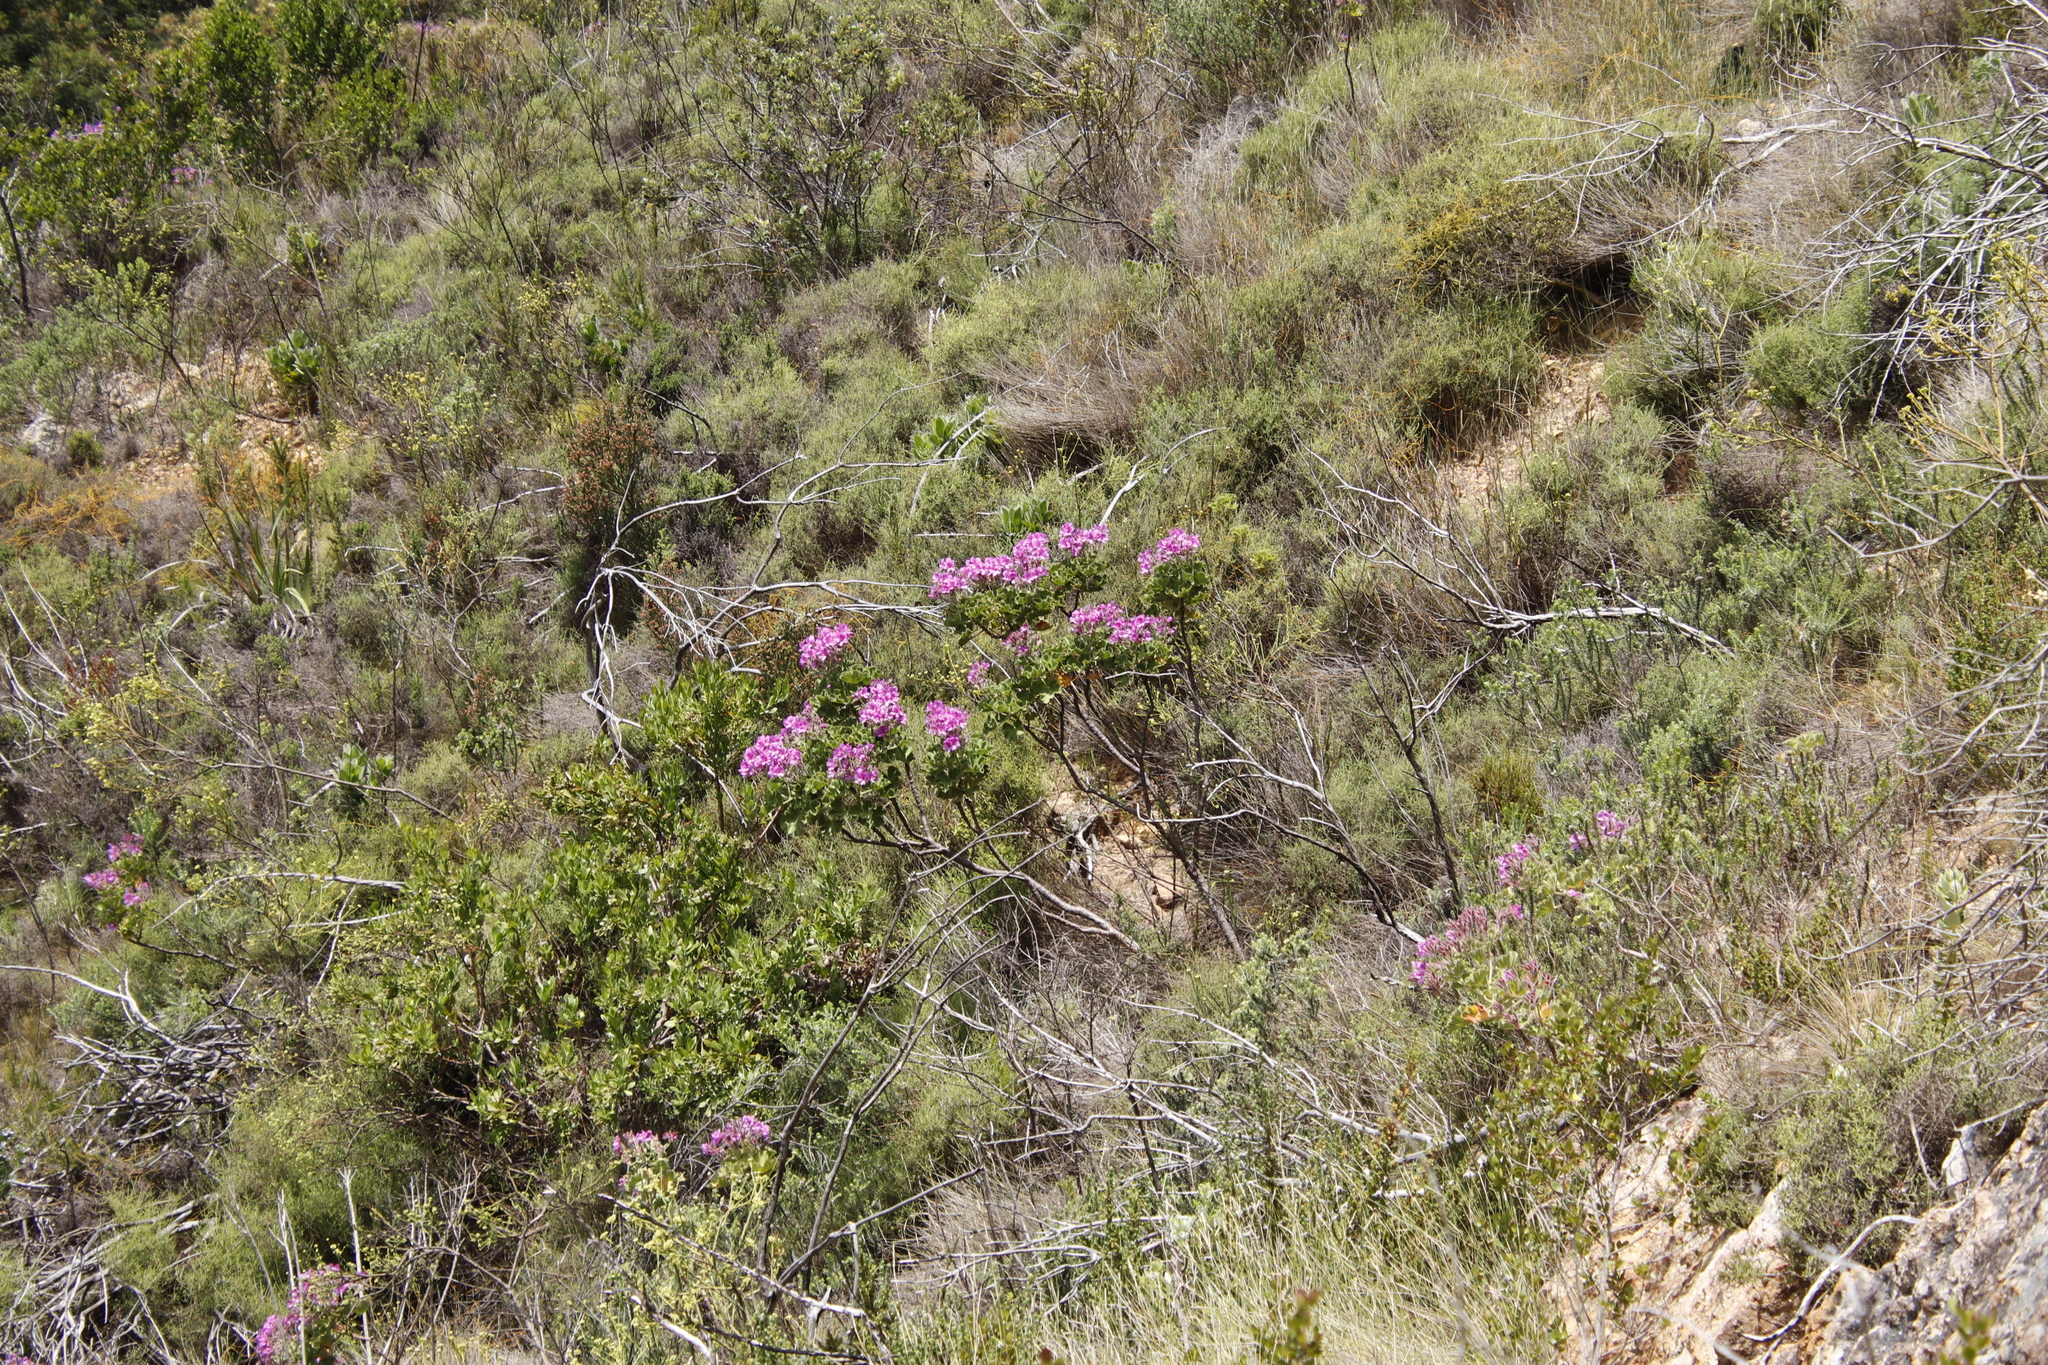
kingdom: Plantae
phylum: Tracheophyta
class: Magnoliopsida
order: Geraniales
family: Geraniaceae
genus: Pelargonium
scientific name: Pelargonium cucullatum
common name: Tree pelargonium
